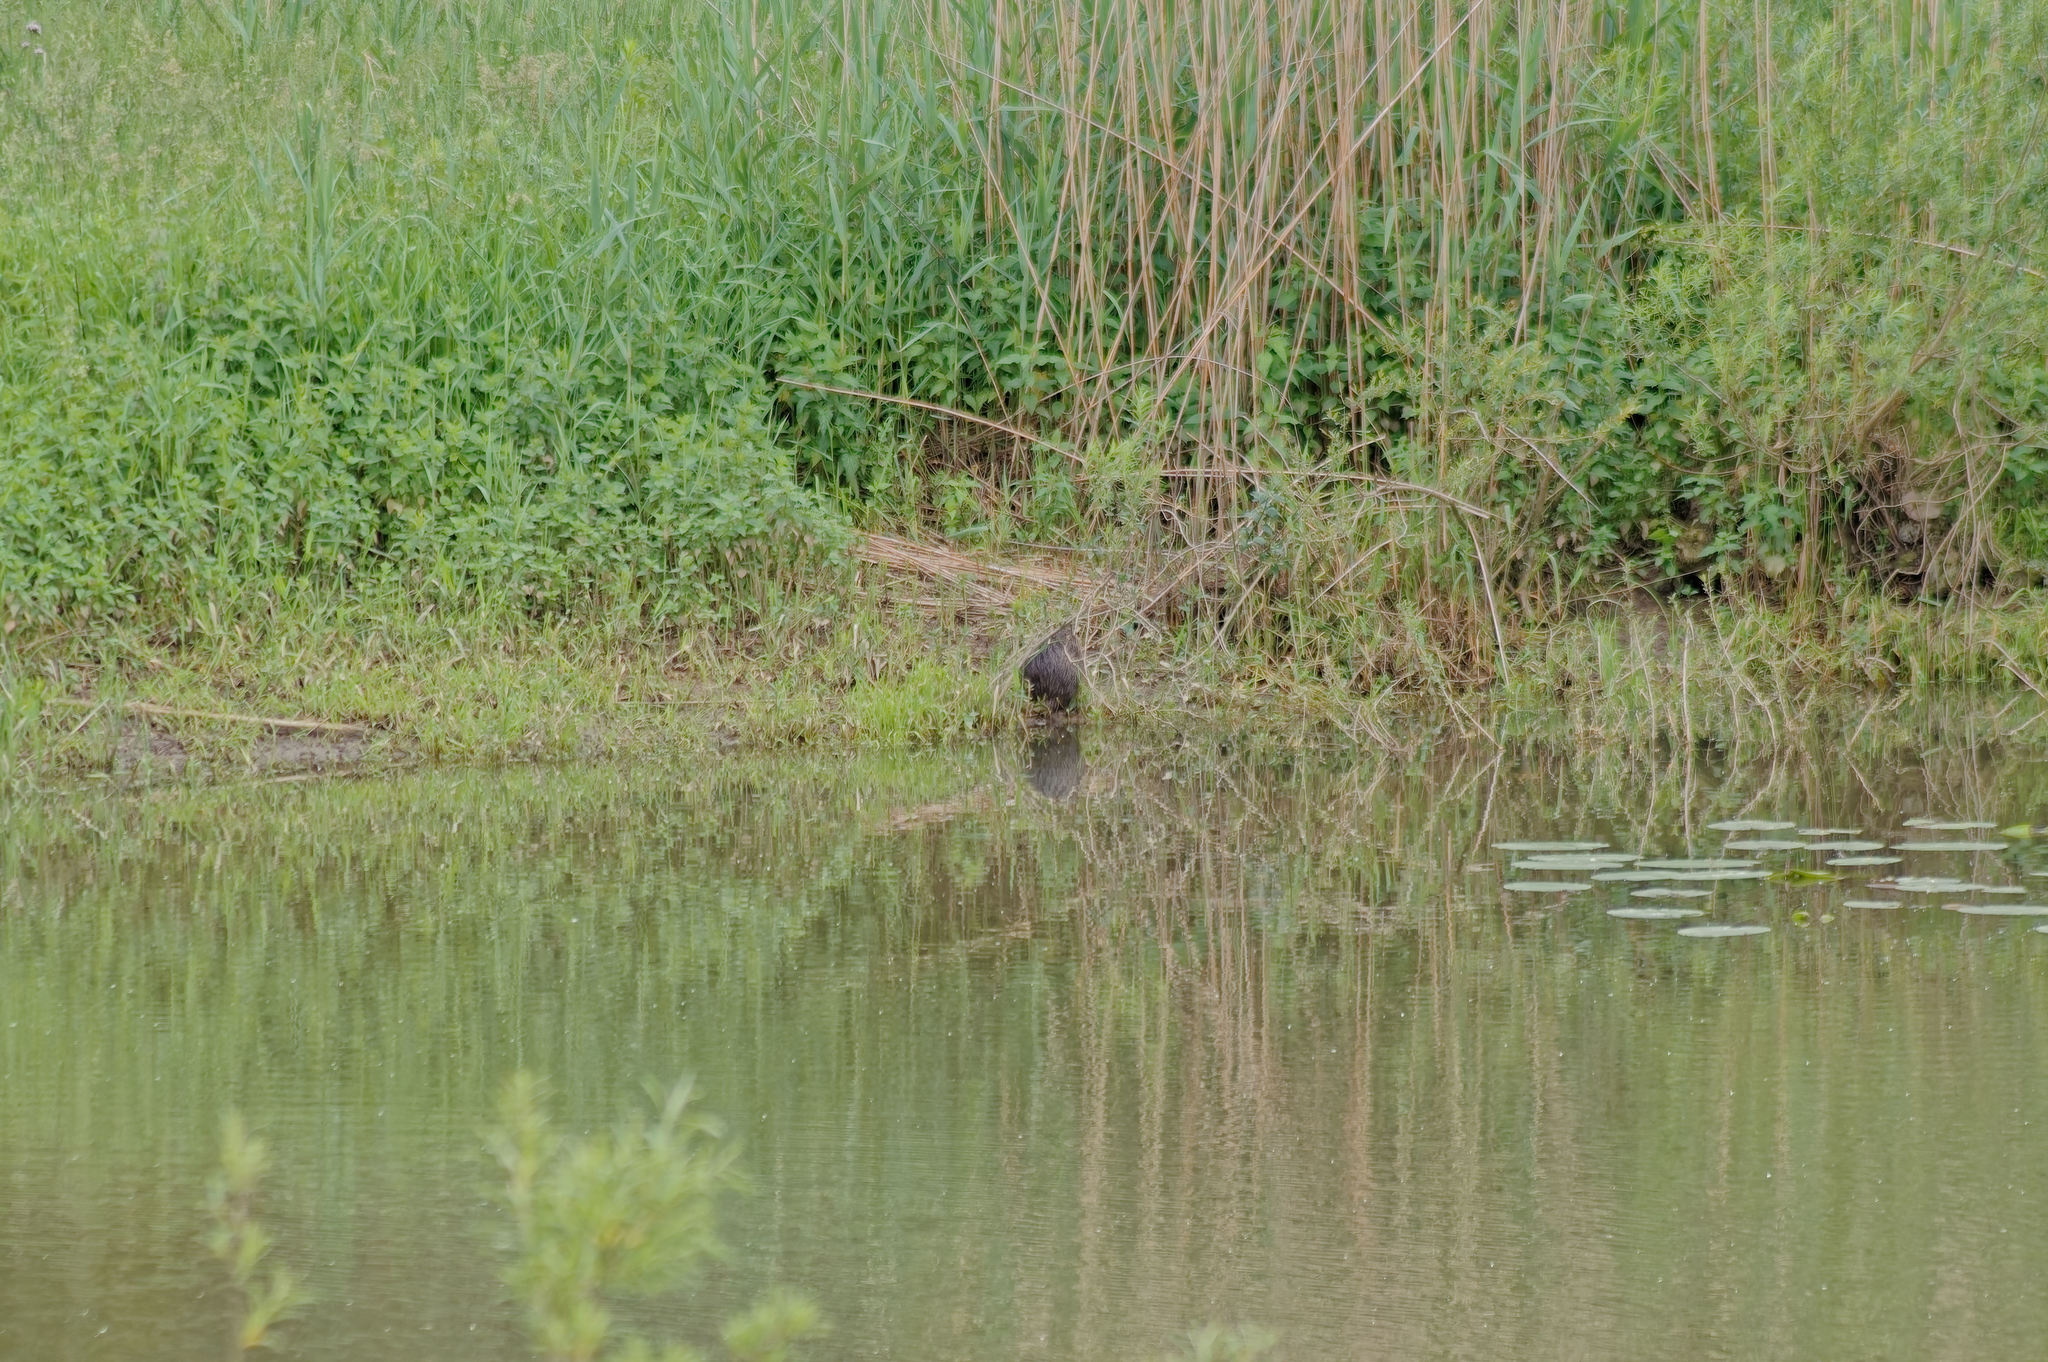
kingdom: Animalia
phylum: Chordata
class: Mammalia
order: Rodentia
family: Myocastoridae
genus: Myocastor
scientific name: Myocastor coypus
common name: Coypu
